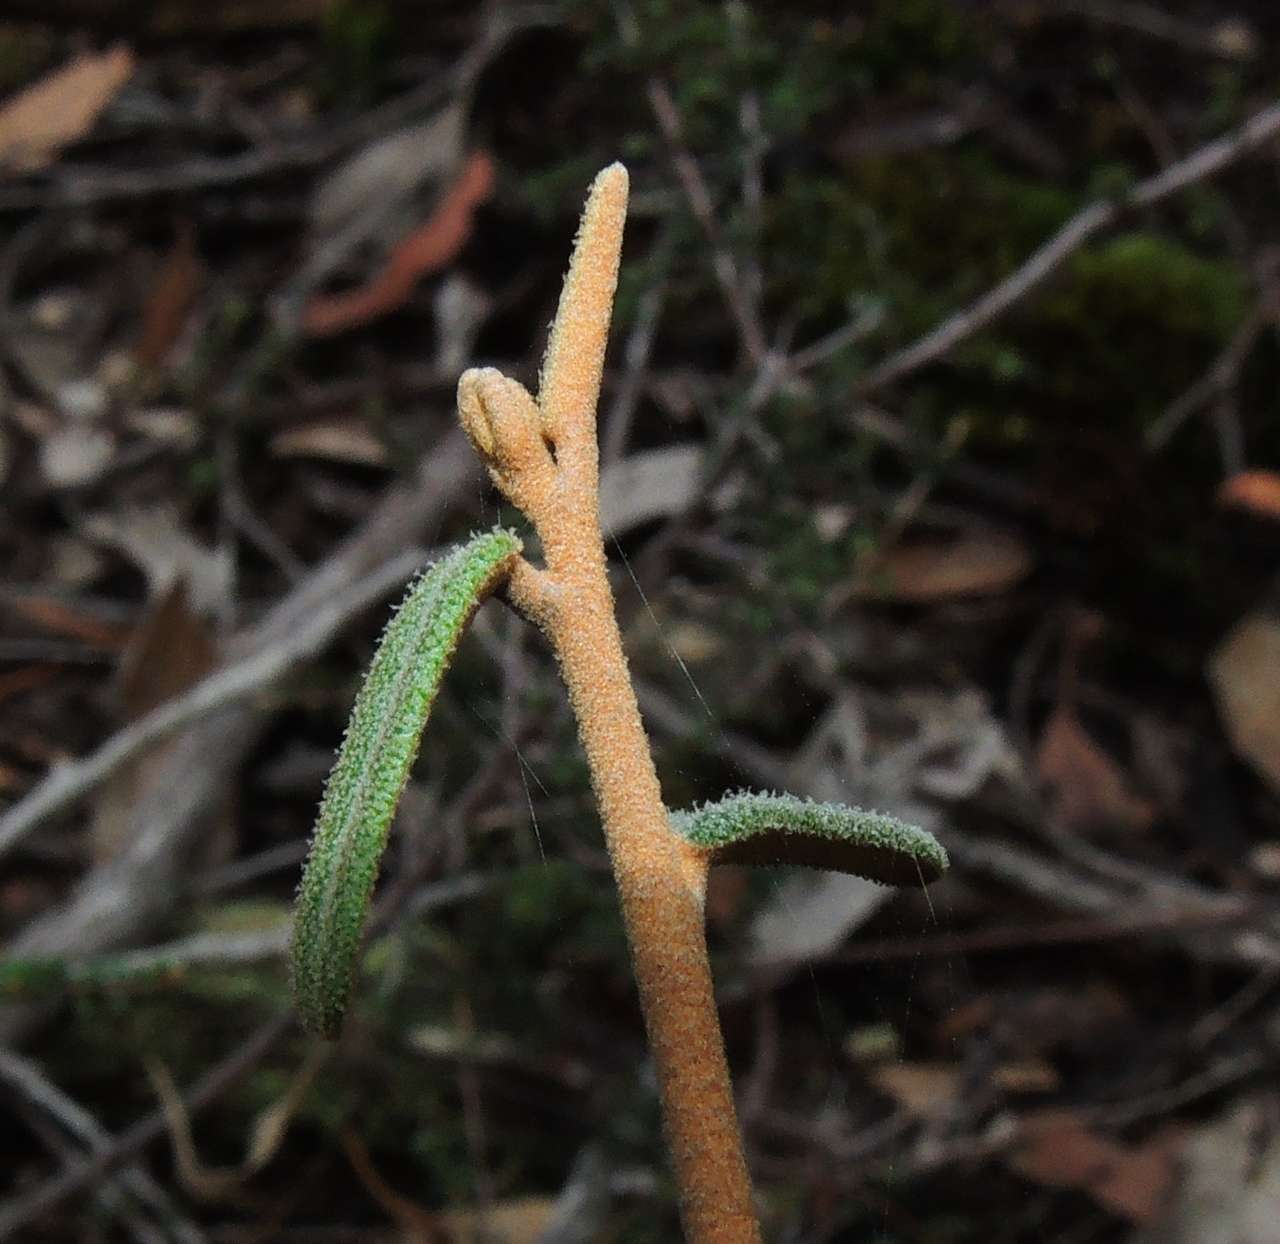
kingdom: Plantae
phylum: Tracheophyta
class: Magnoliopsida
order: Apiales
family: Araliaceae
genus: Astrotricha
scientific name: Astrotricha ledifolia
